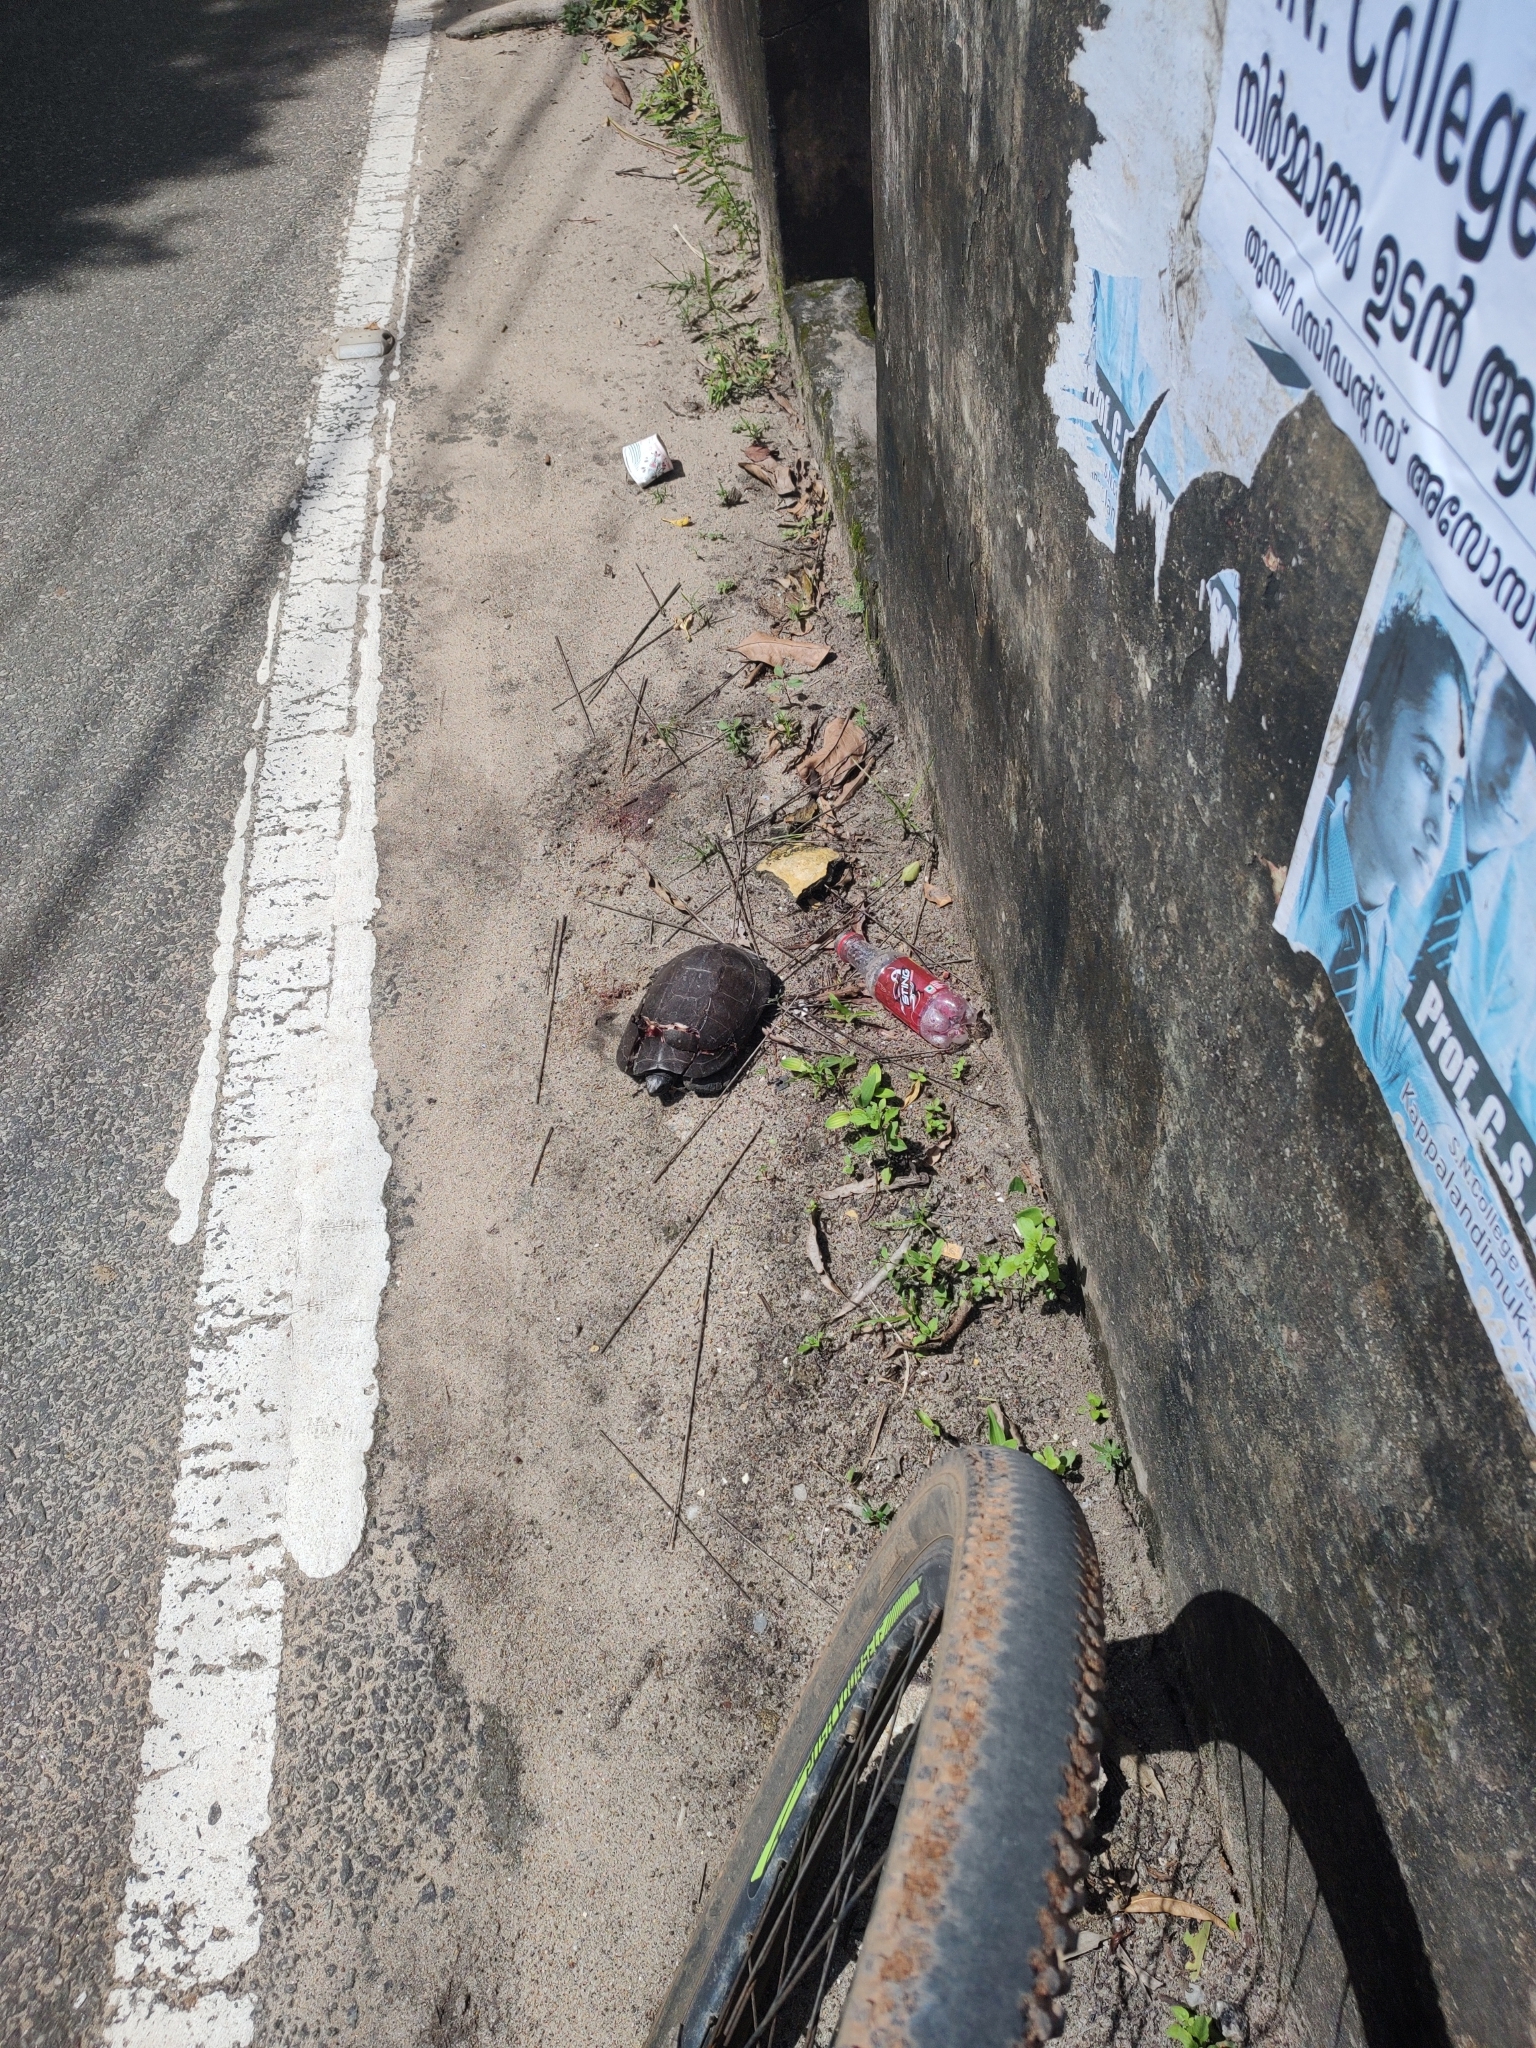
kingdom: Animalia
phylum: Chordata
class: Testudines
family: Geoemydidae
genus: Melanochelys
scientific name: Melanochelys trijuga
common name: Indian black turtle
